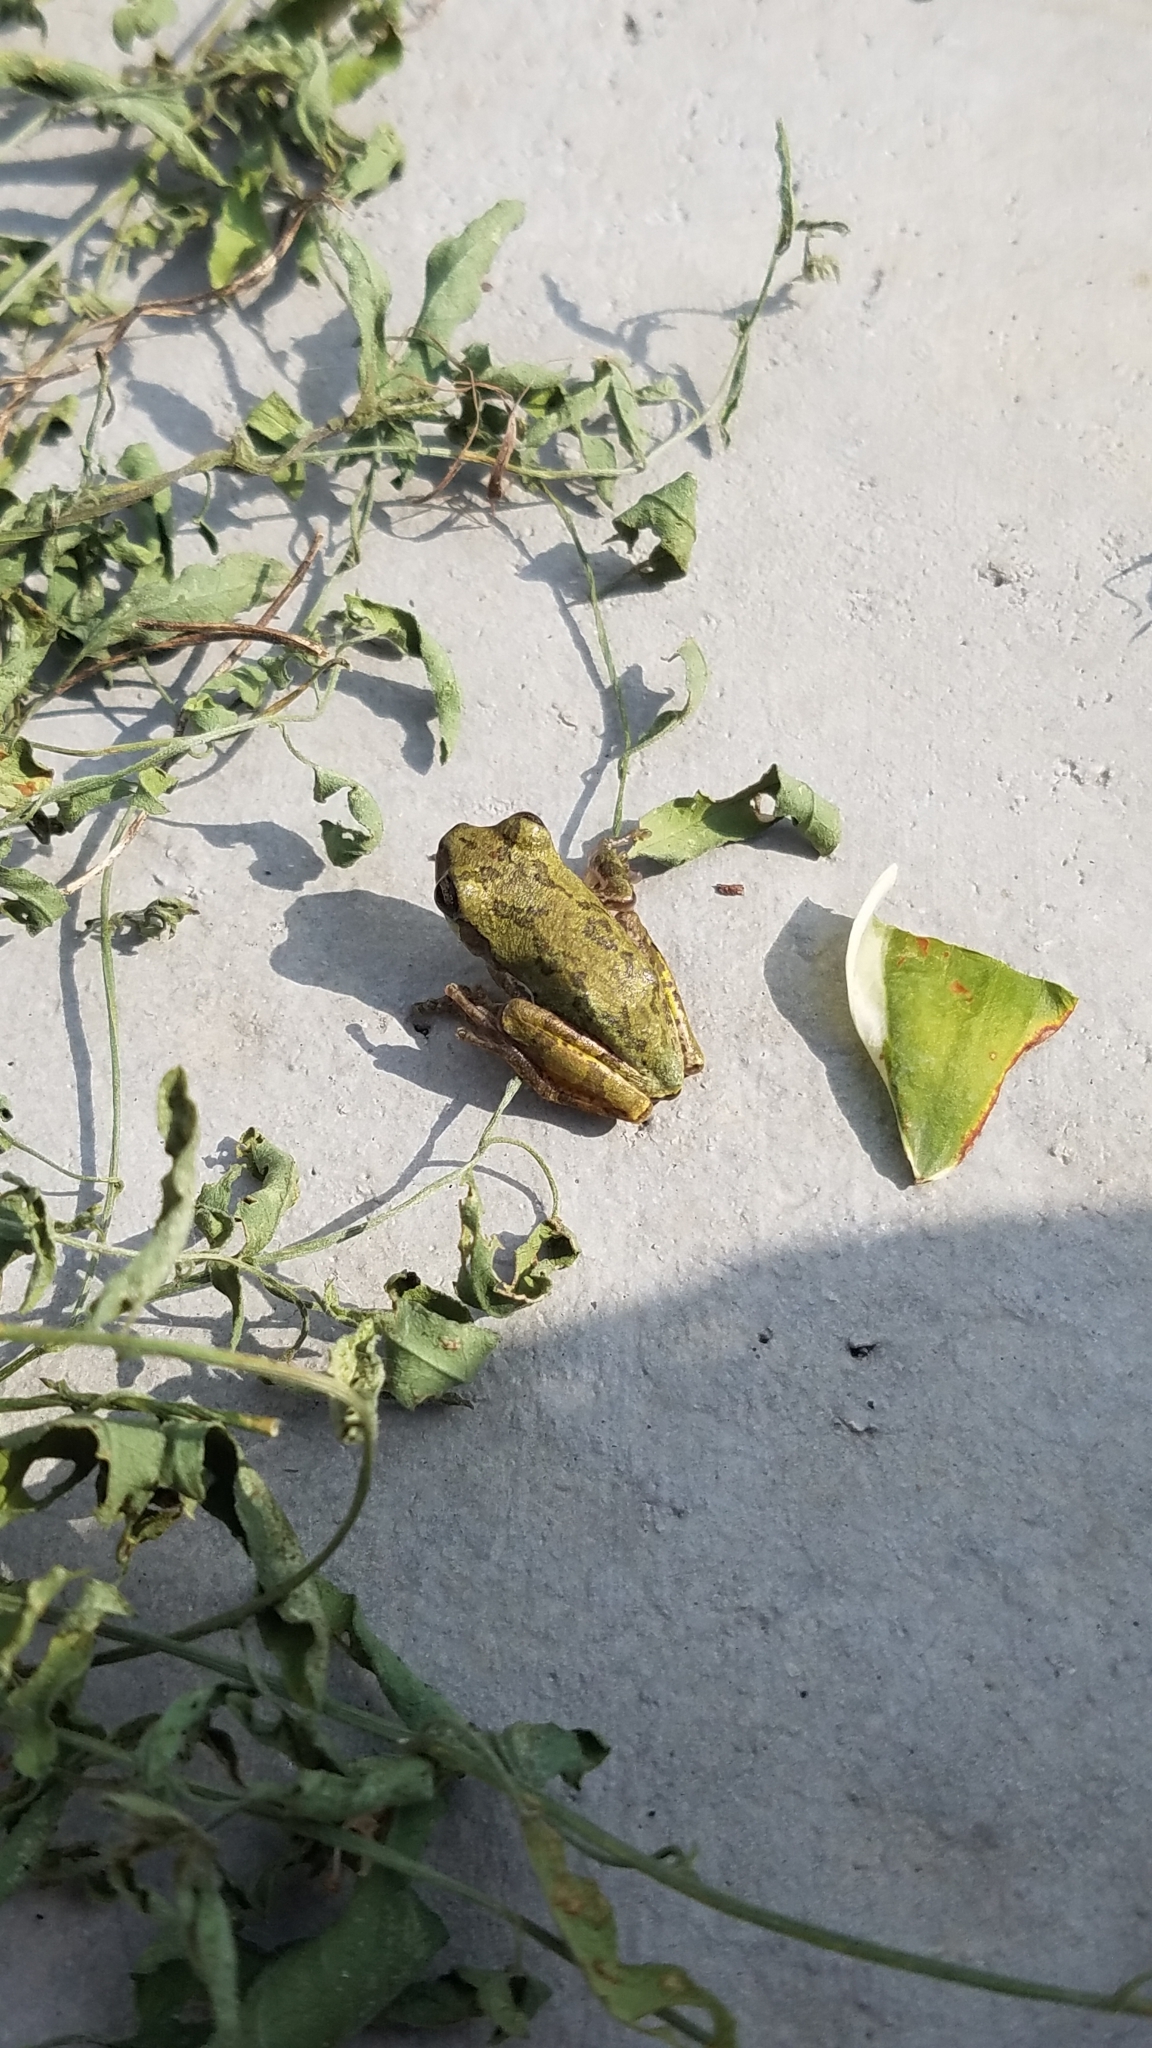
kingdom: Animalia
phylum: Chordata
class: Amphibia
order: Anura
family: Hylidae
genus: Pseudacris
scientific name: Pseudacris maculata
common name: Boreal chorus frog
